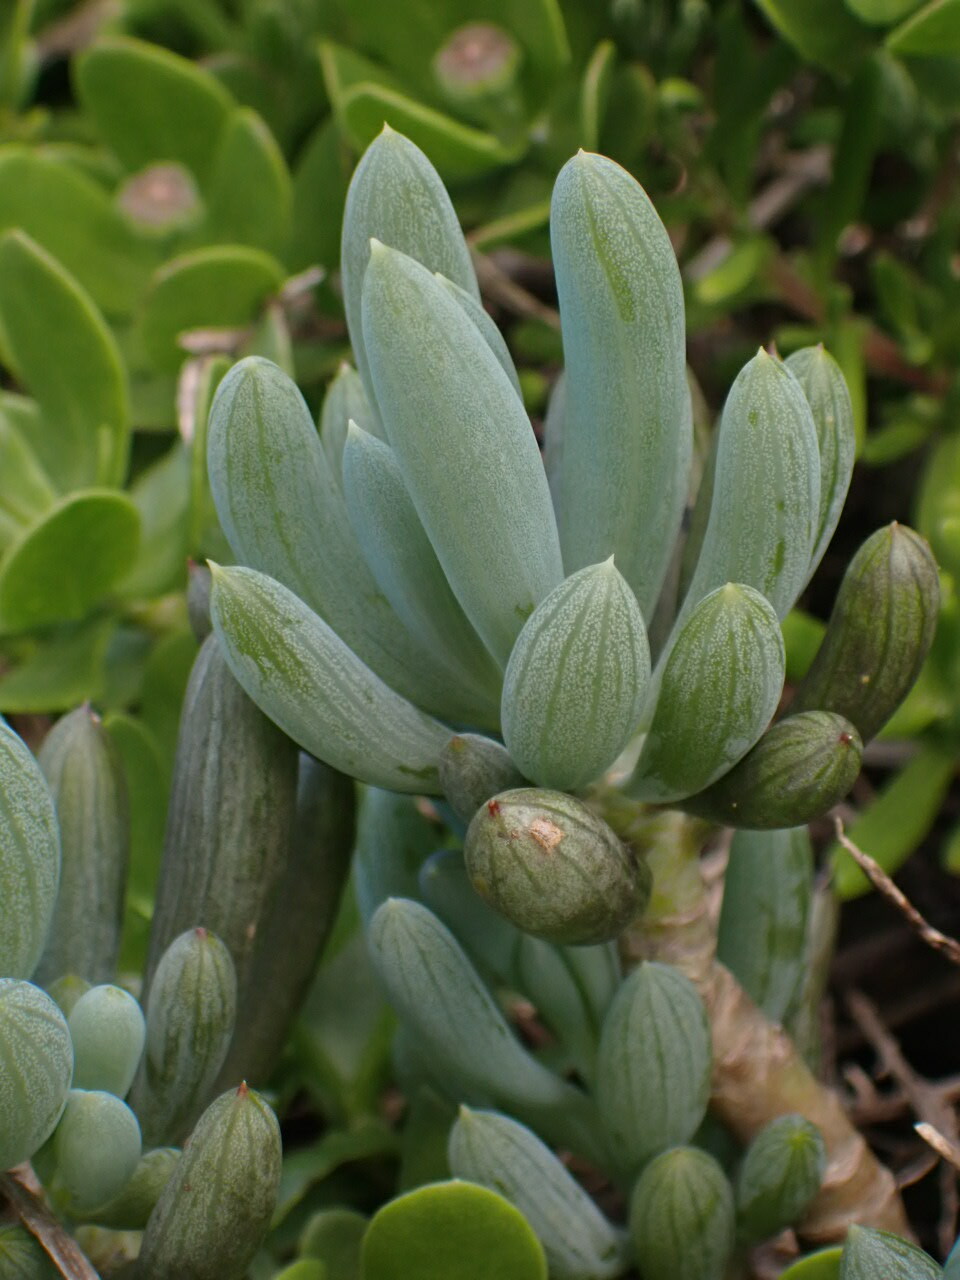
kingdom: Plantae
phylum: Tracheophyta
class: Magnoliopsida
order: Asterales
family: Asteraceae
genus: Curio
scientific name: Curio crassulifolius
